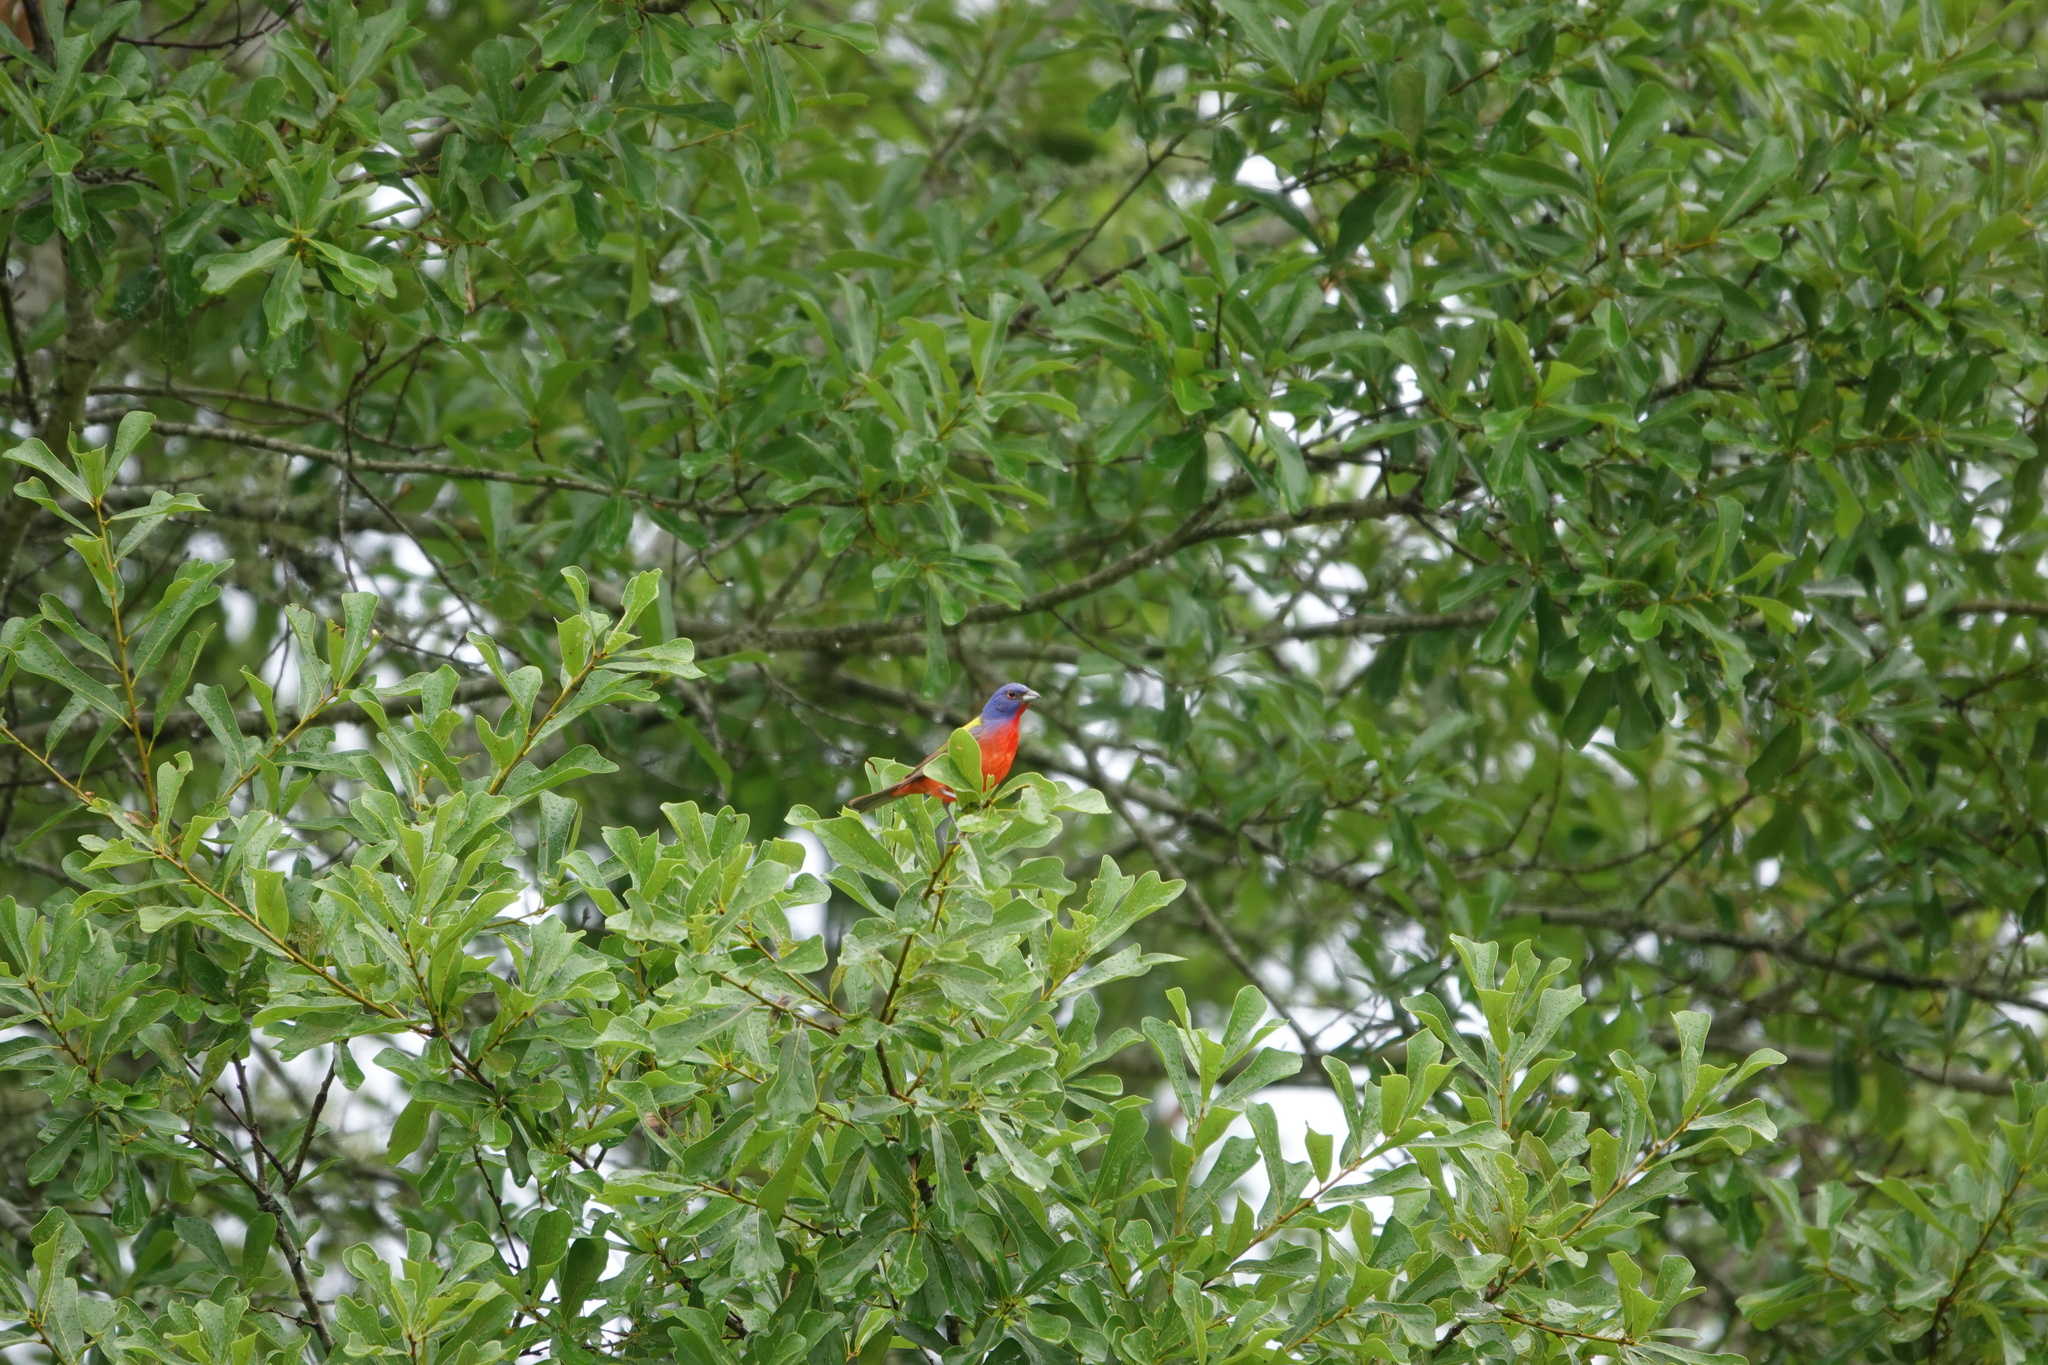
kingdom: Animalia
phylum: Chordata
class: Aves
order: Passeriformes
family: Cardinalidae
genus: Passerina
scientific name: Passerina ciris
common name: Painted bunting
